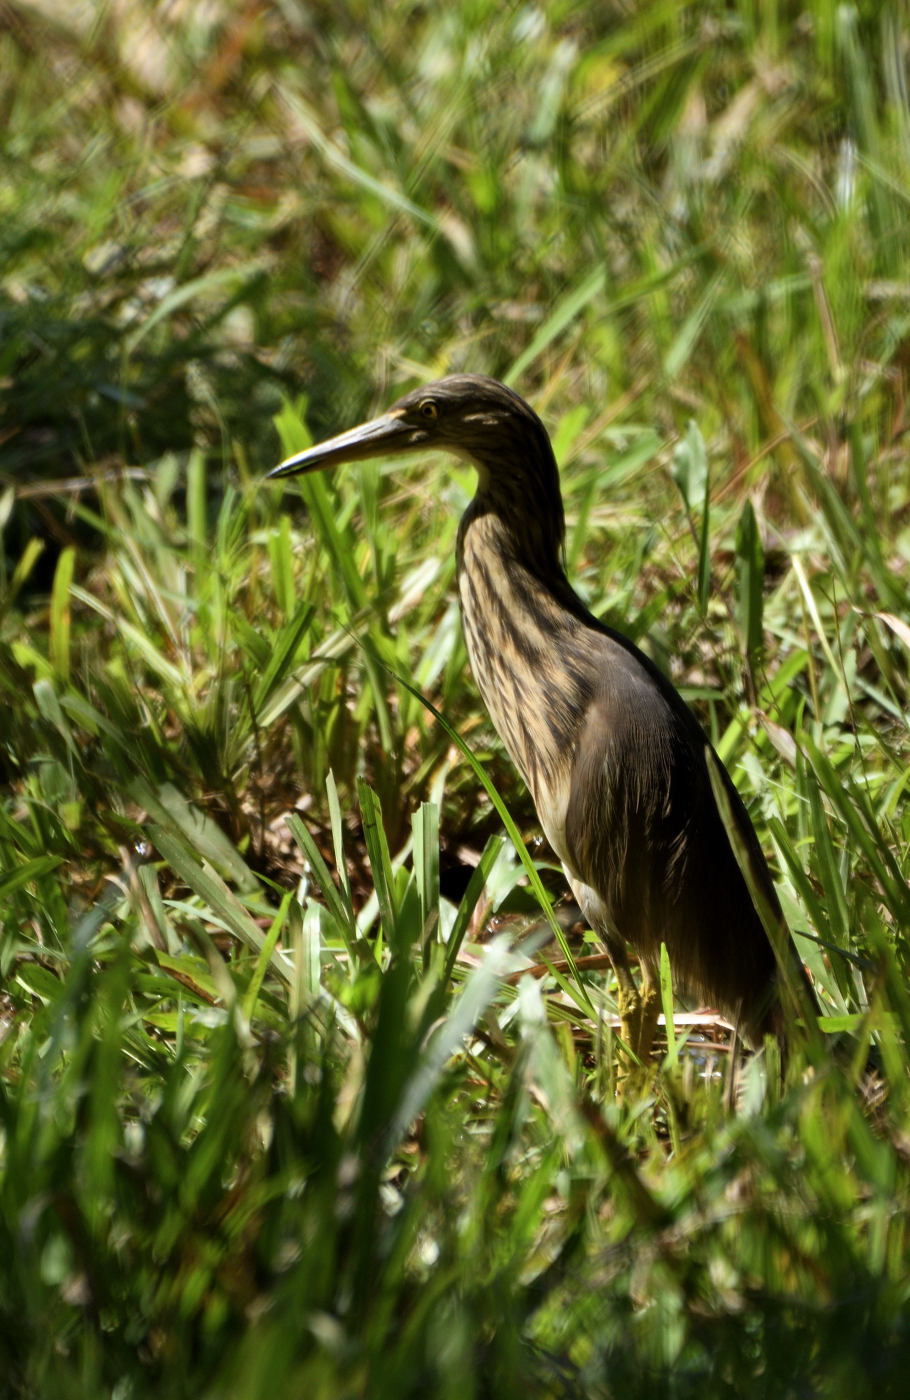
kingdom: Animalia
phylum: Chordata
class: Aves
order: Pelecaniformes
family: Ardeidae
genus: Ardeola
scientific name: Ardeola grayii
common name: Indian pond heron
